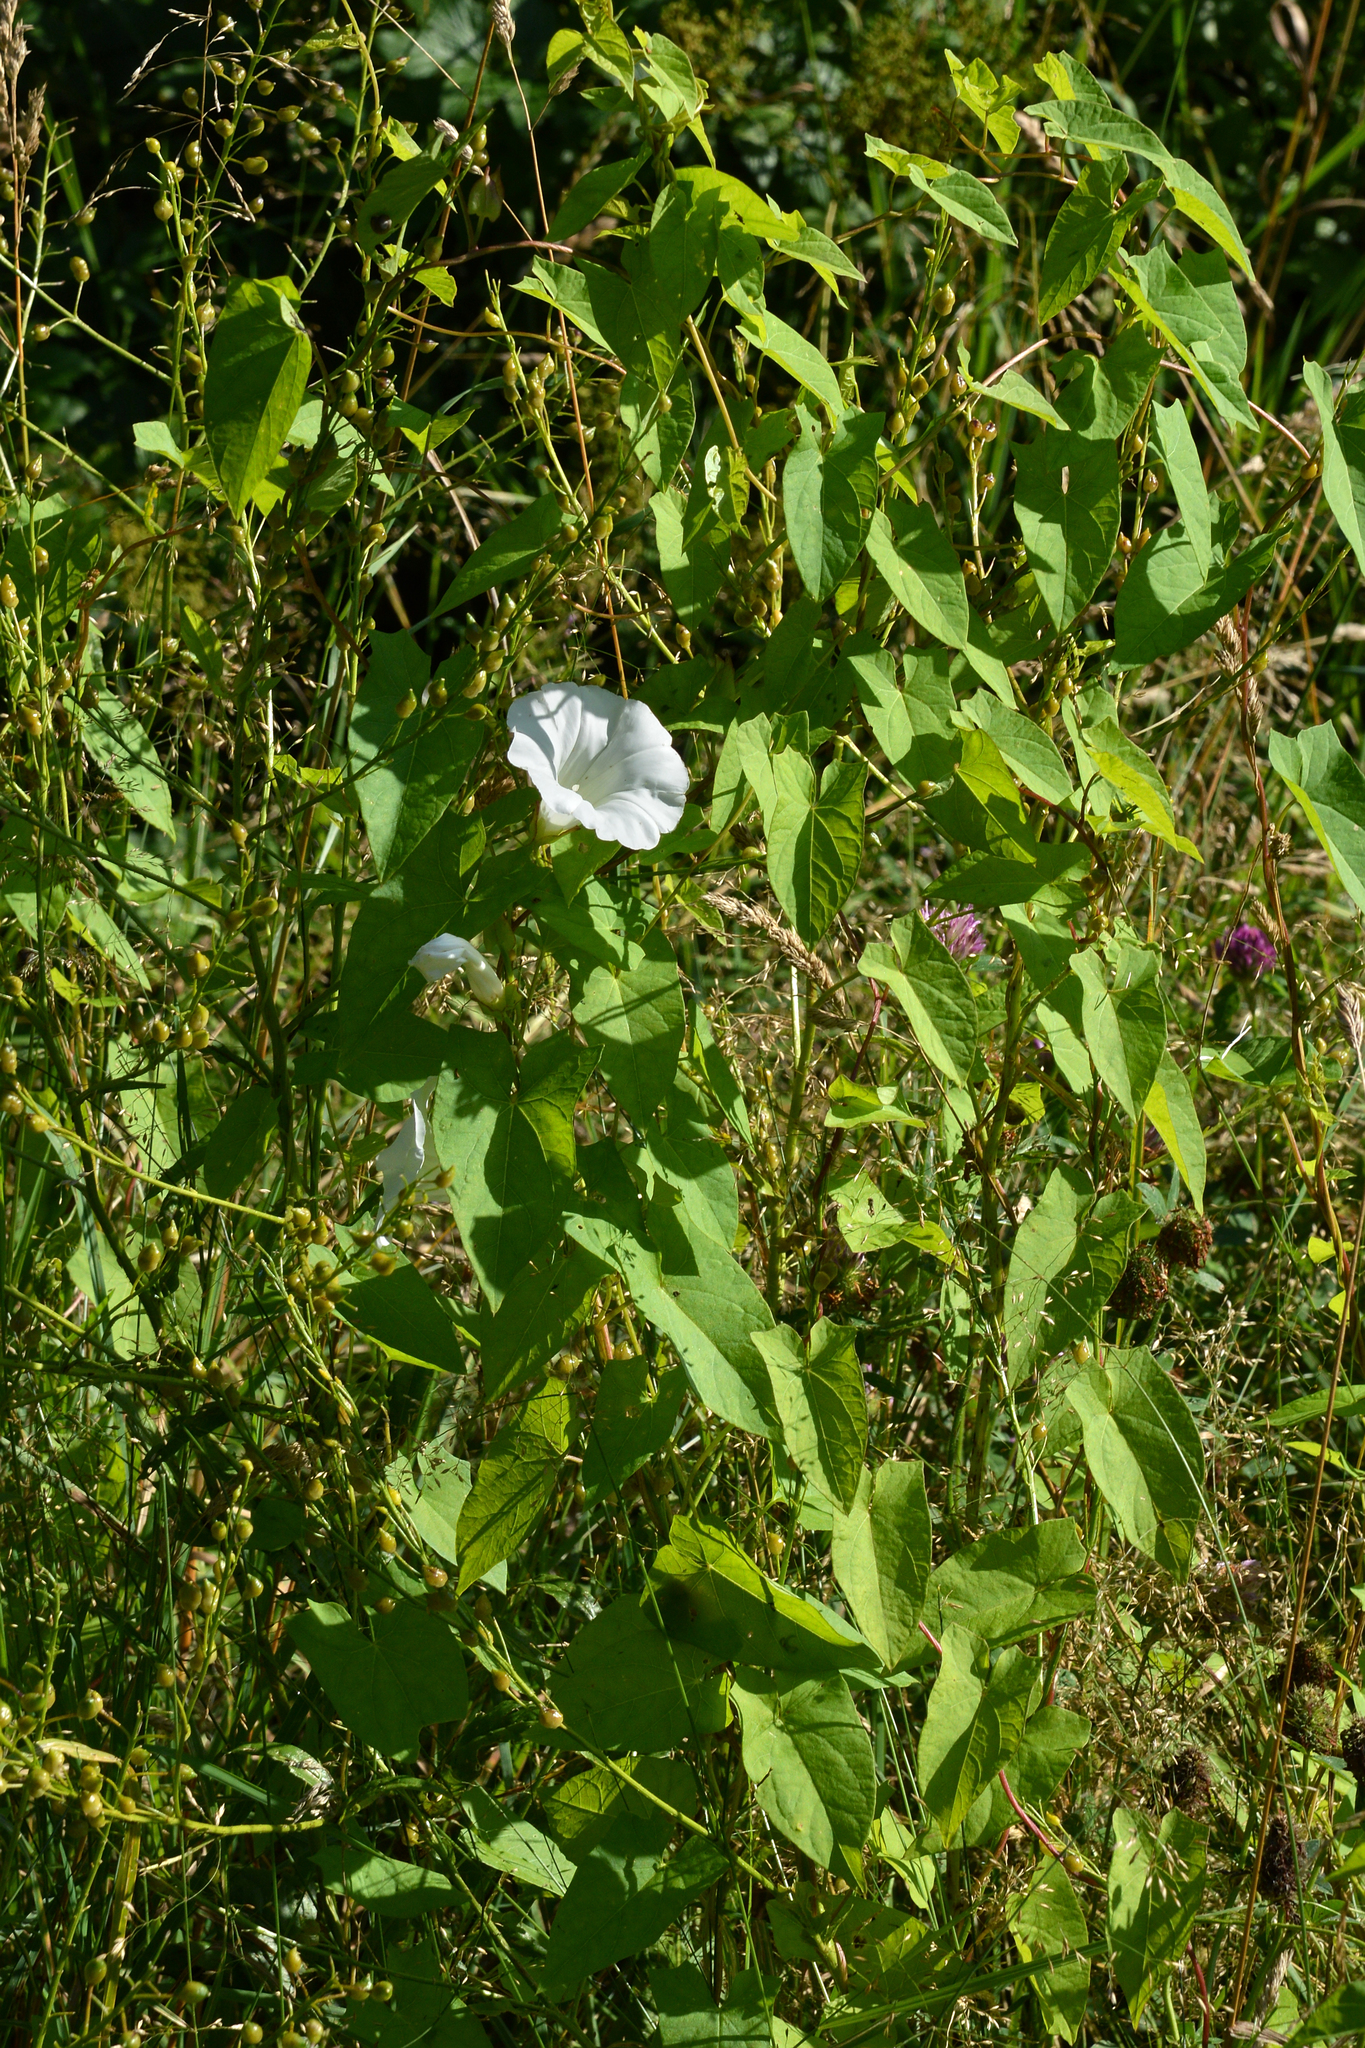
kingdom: Plantae
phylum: Tracheophyta
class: Magnoliopsida
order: Solanales
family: Convolvulaceae
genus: Calystegia
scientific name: Calystegia sepium
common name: Hedge bindweed
